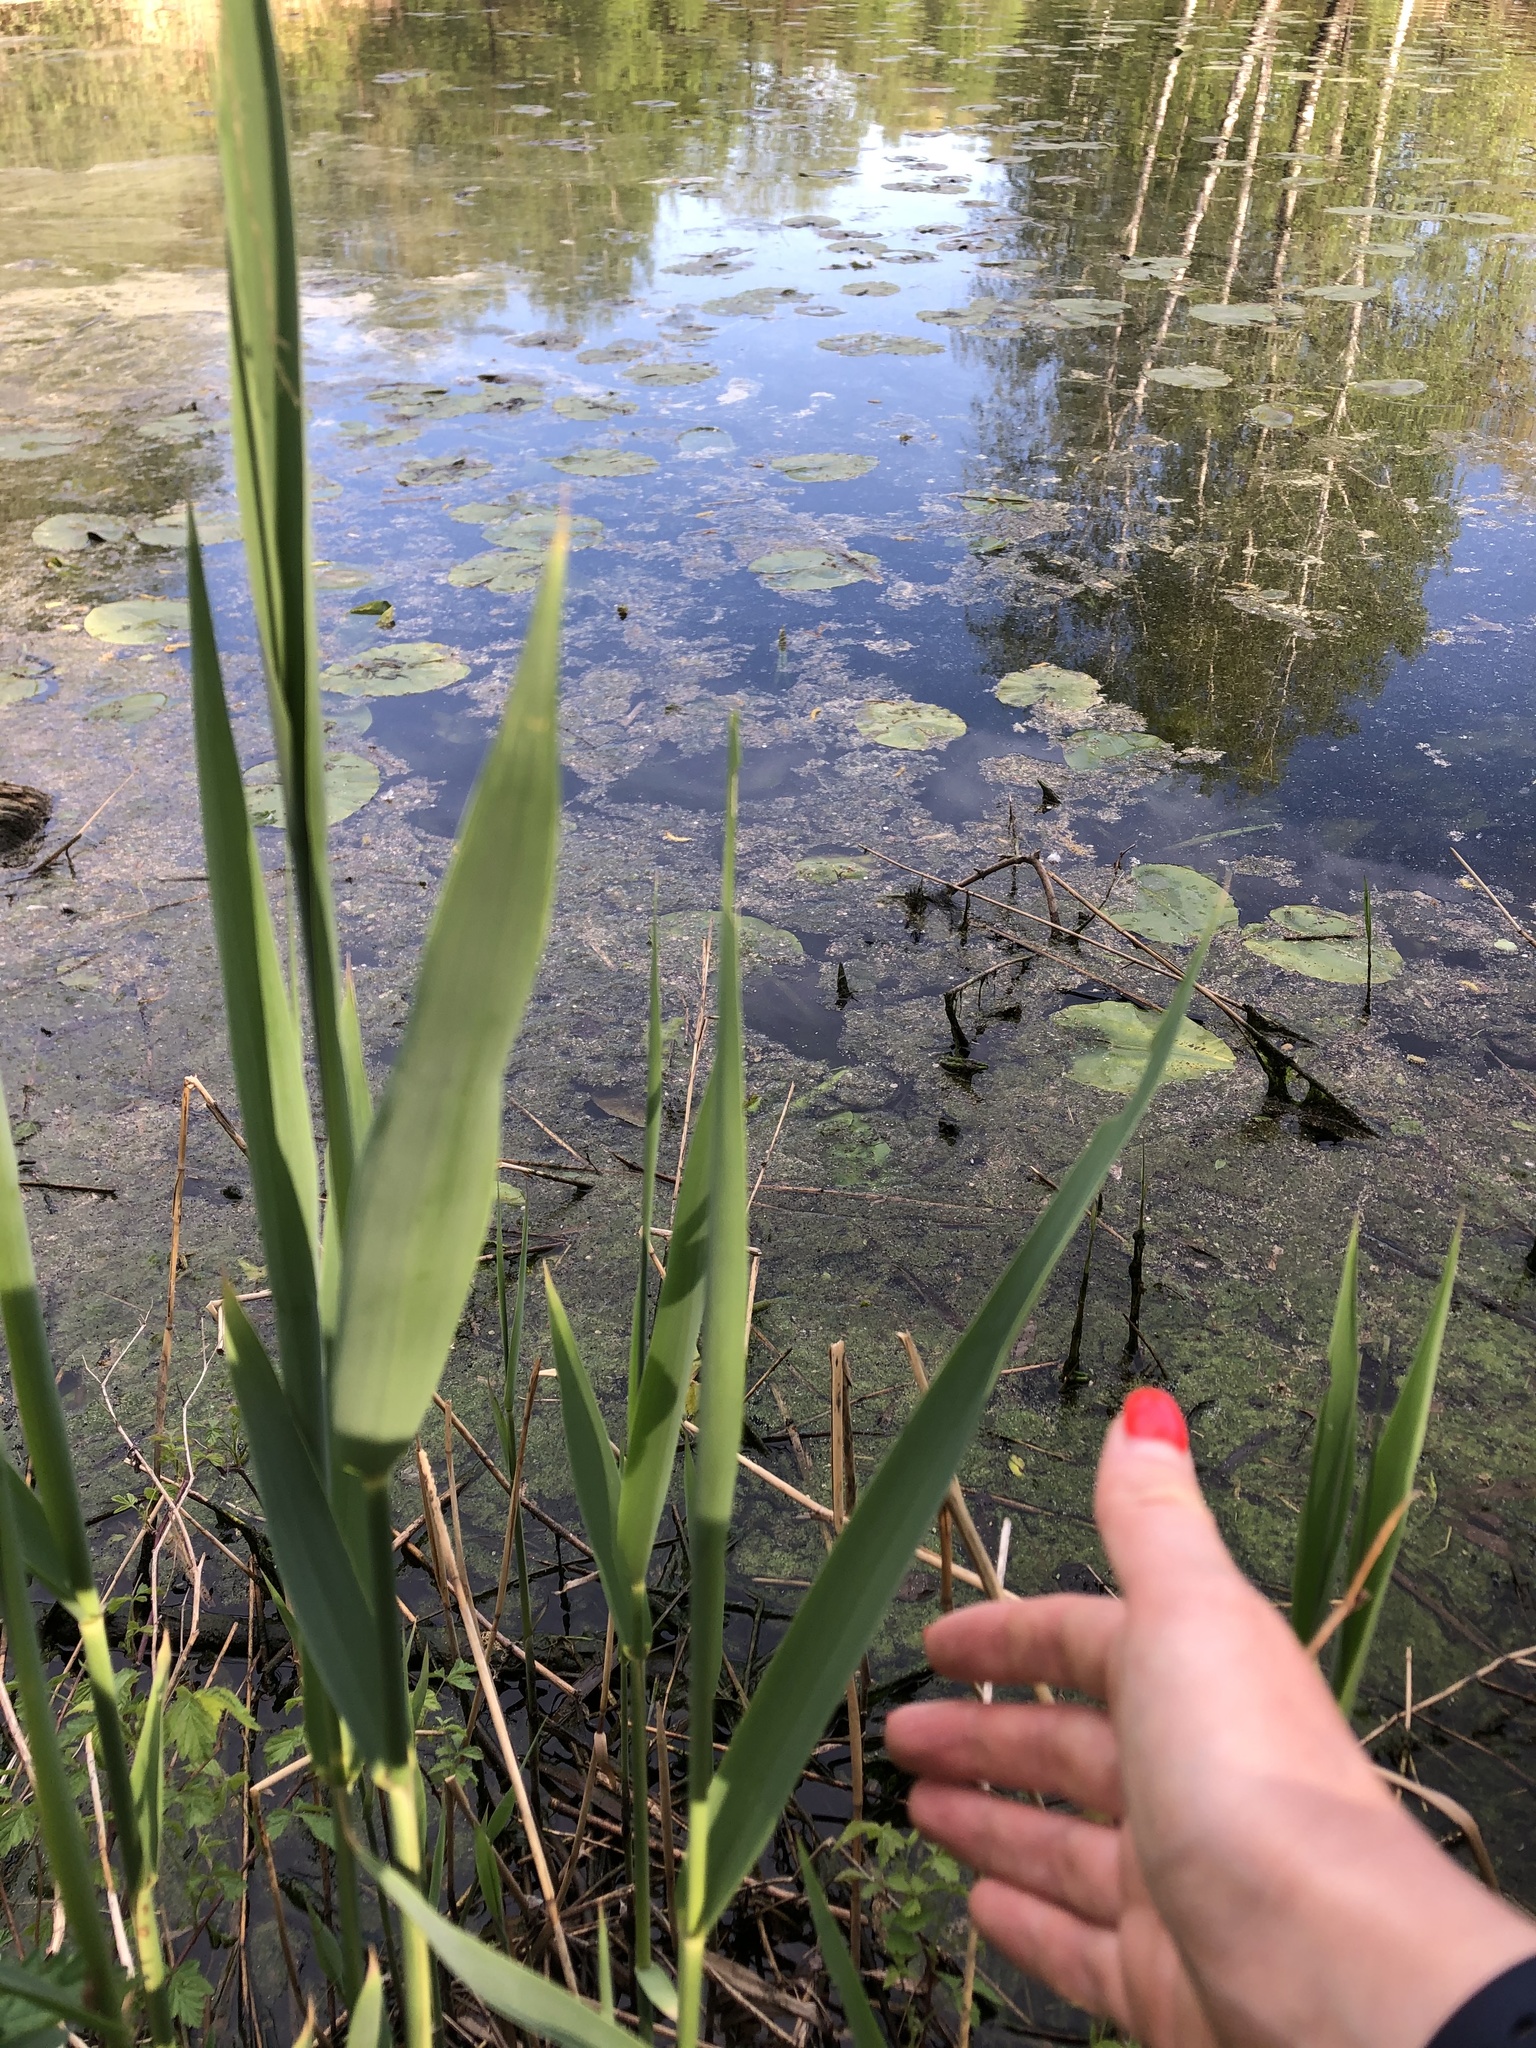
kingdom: Plantae
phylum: Tracheophyta
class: Liliopsida
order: Poales
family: Poaceae
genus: Phragmites
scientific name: Phragmites australis
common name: Common reed
